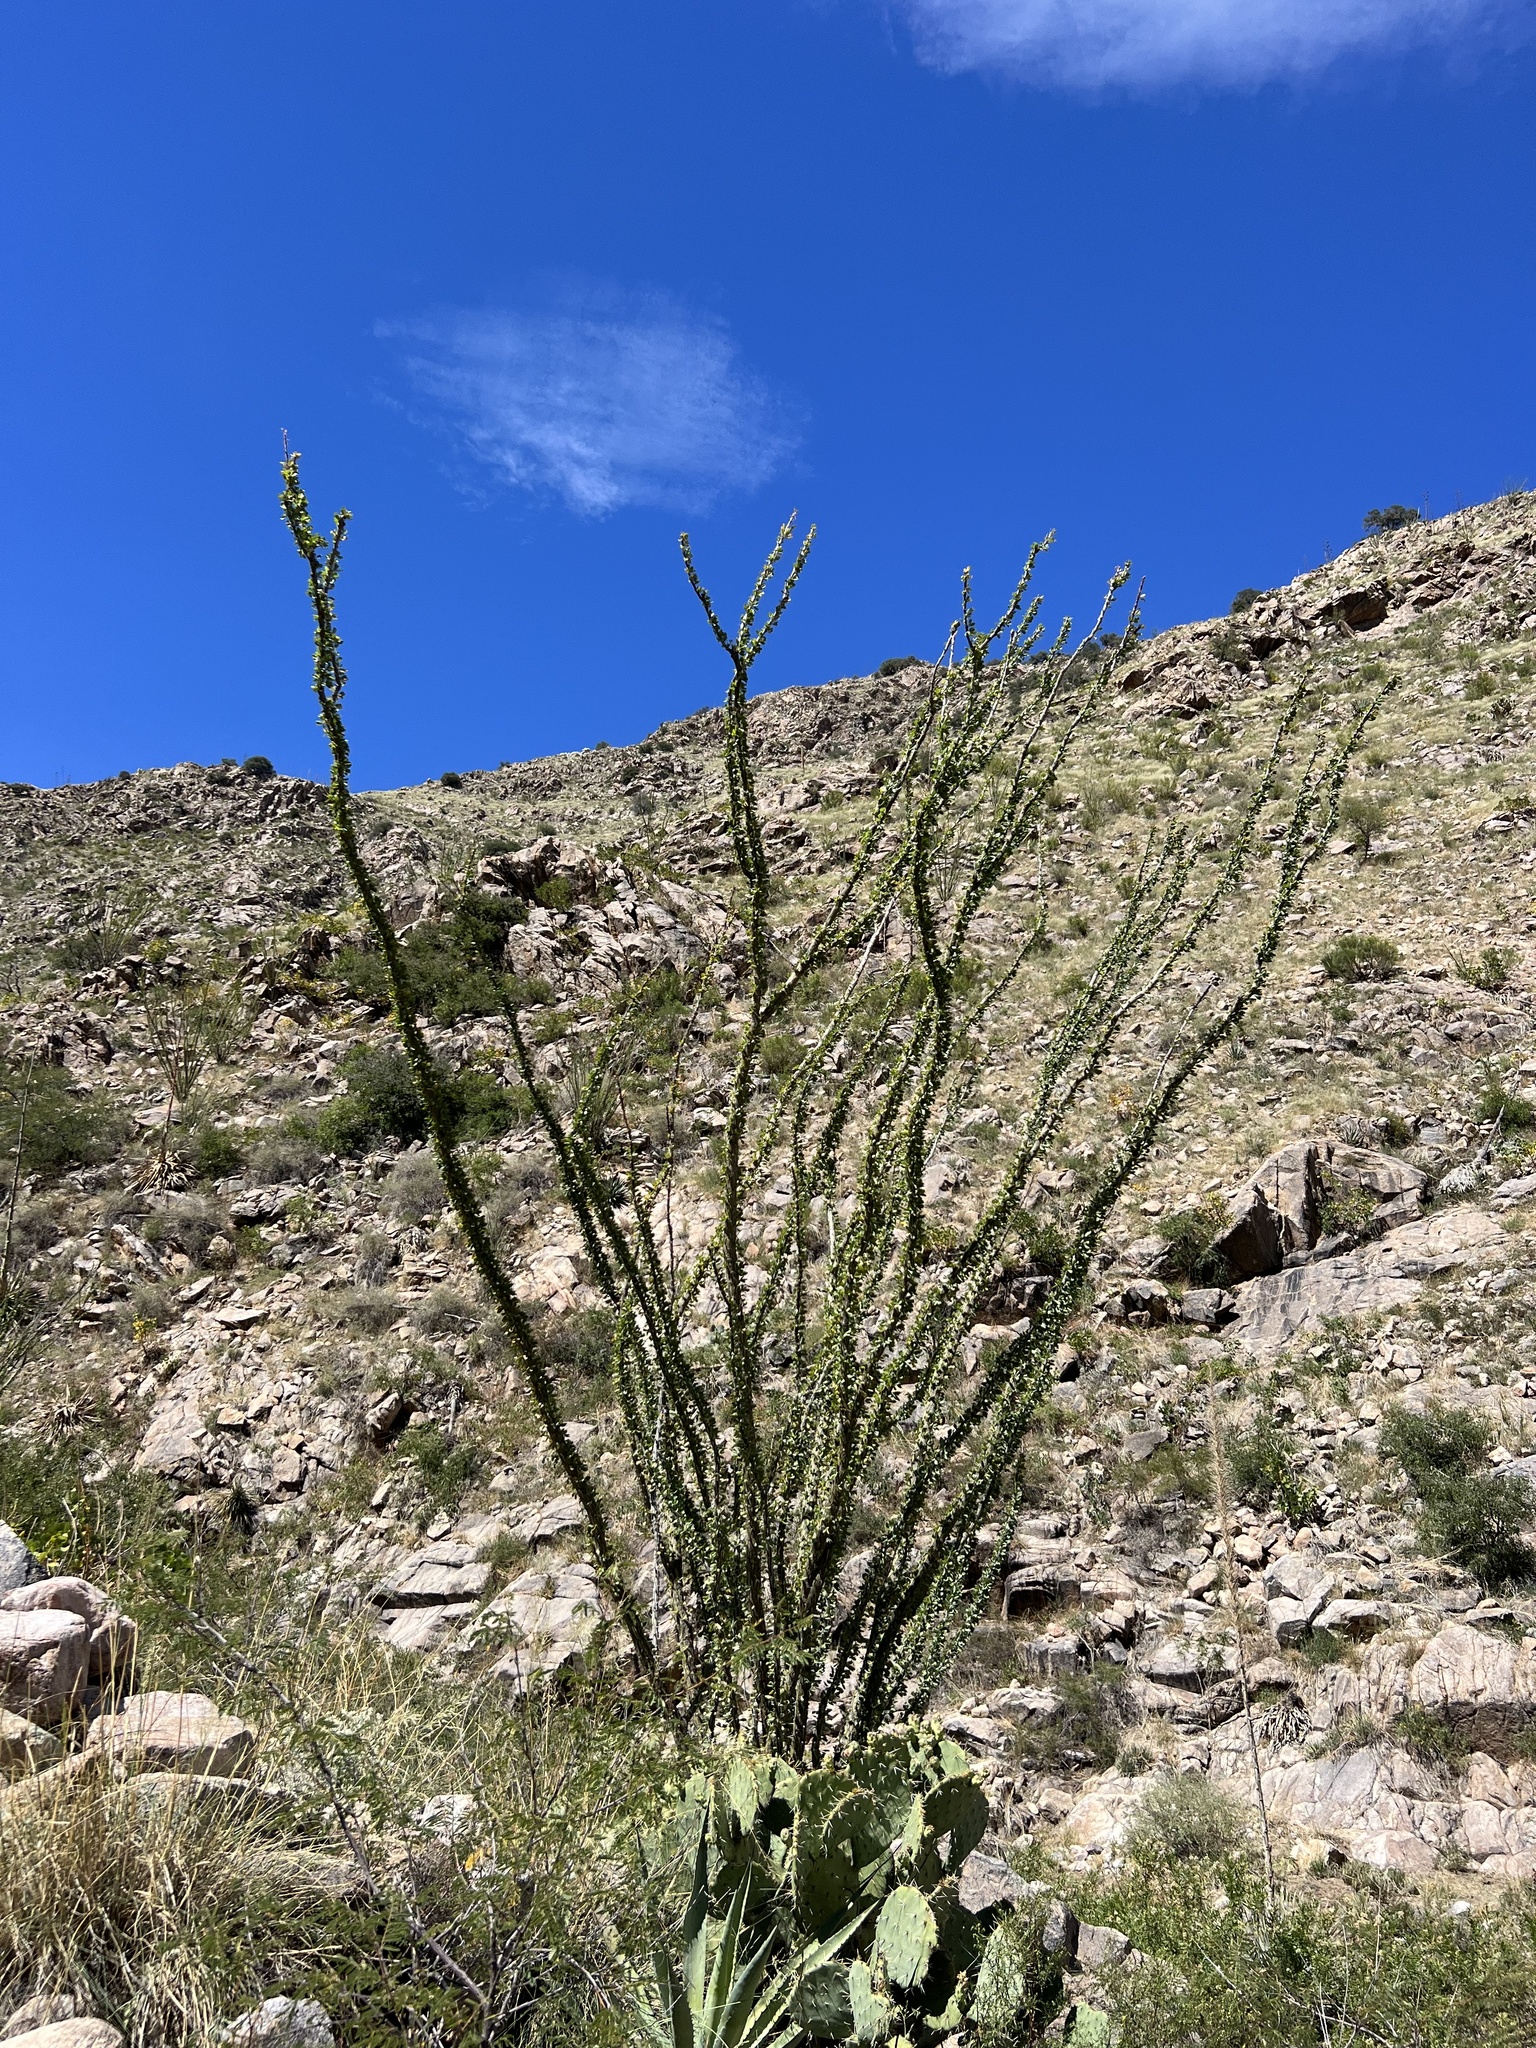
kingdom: Plantae
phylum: Tracheophyta
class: Magnoliopsida
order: Ericales
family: Fouquieriaceae
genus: Fouquieria
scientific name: Fouquieria splendens
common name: Vine-cactus
